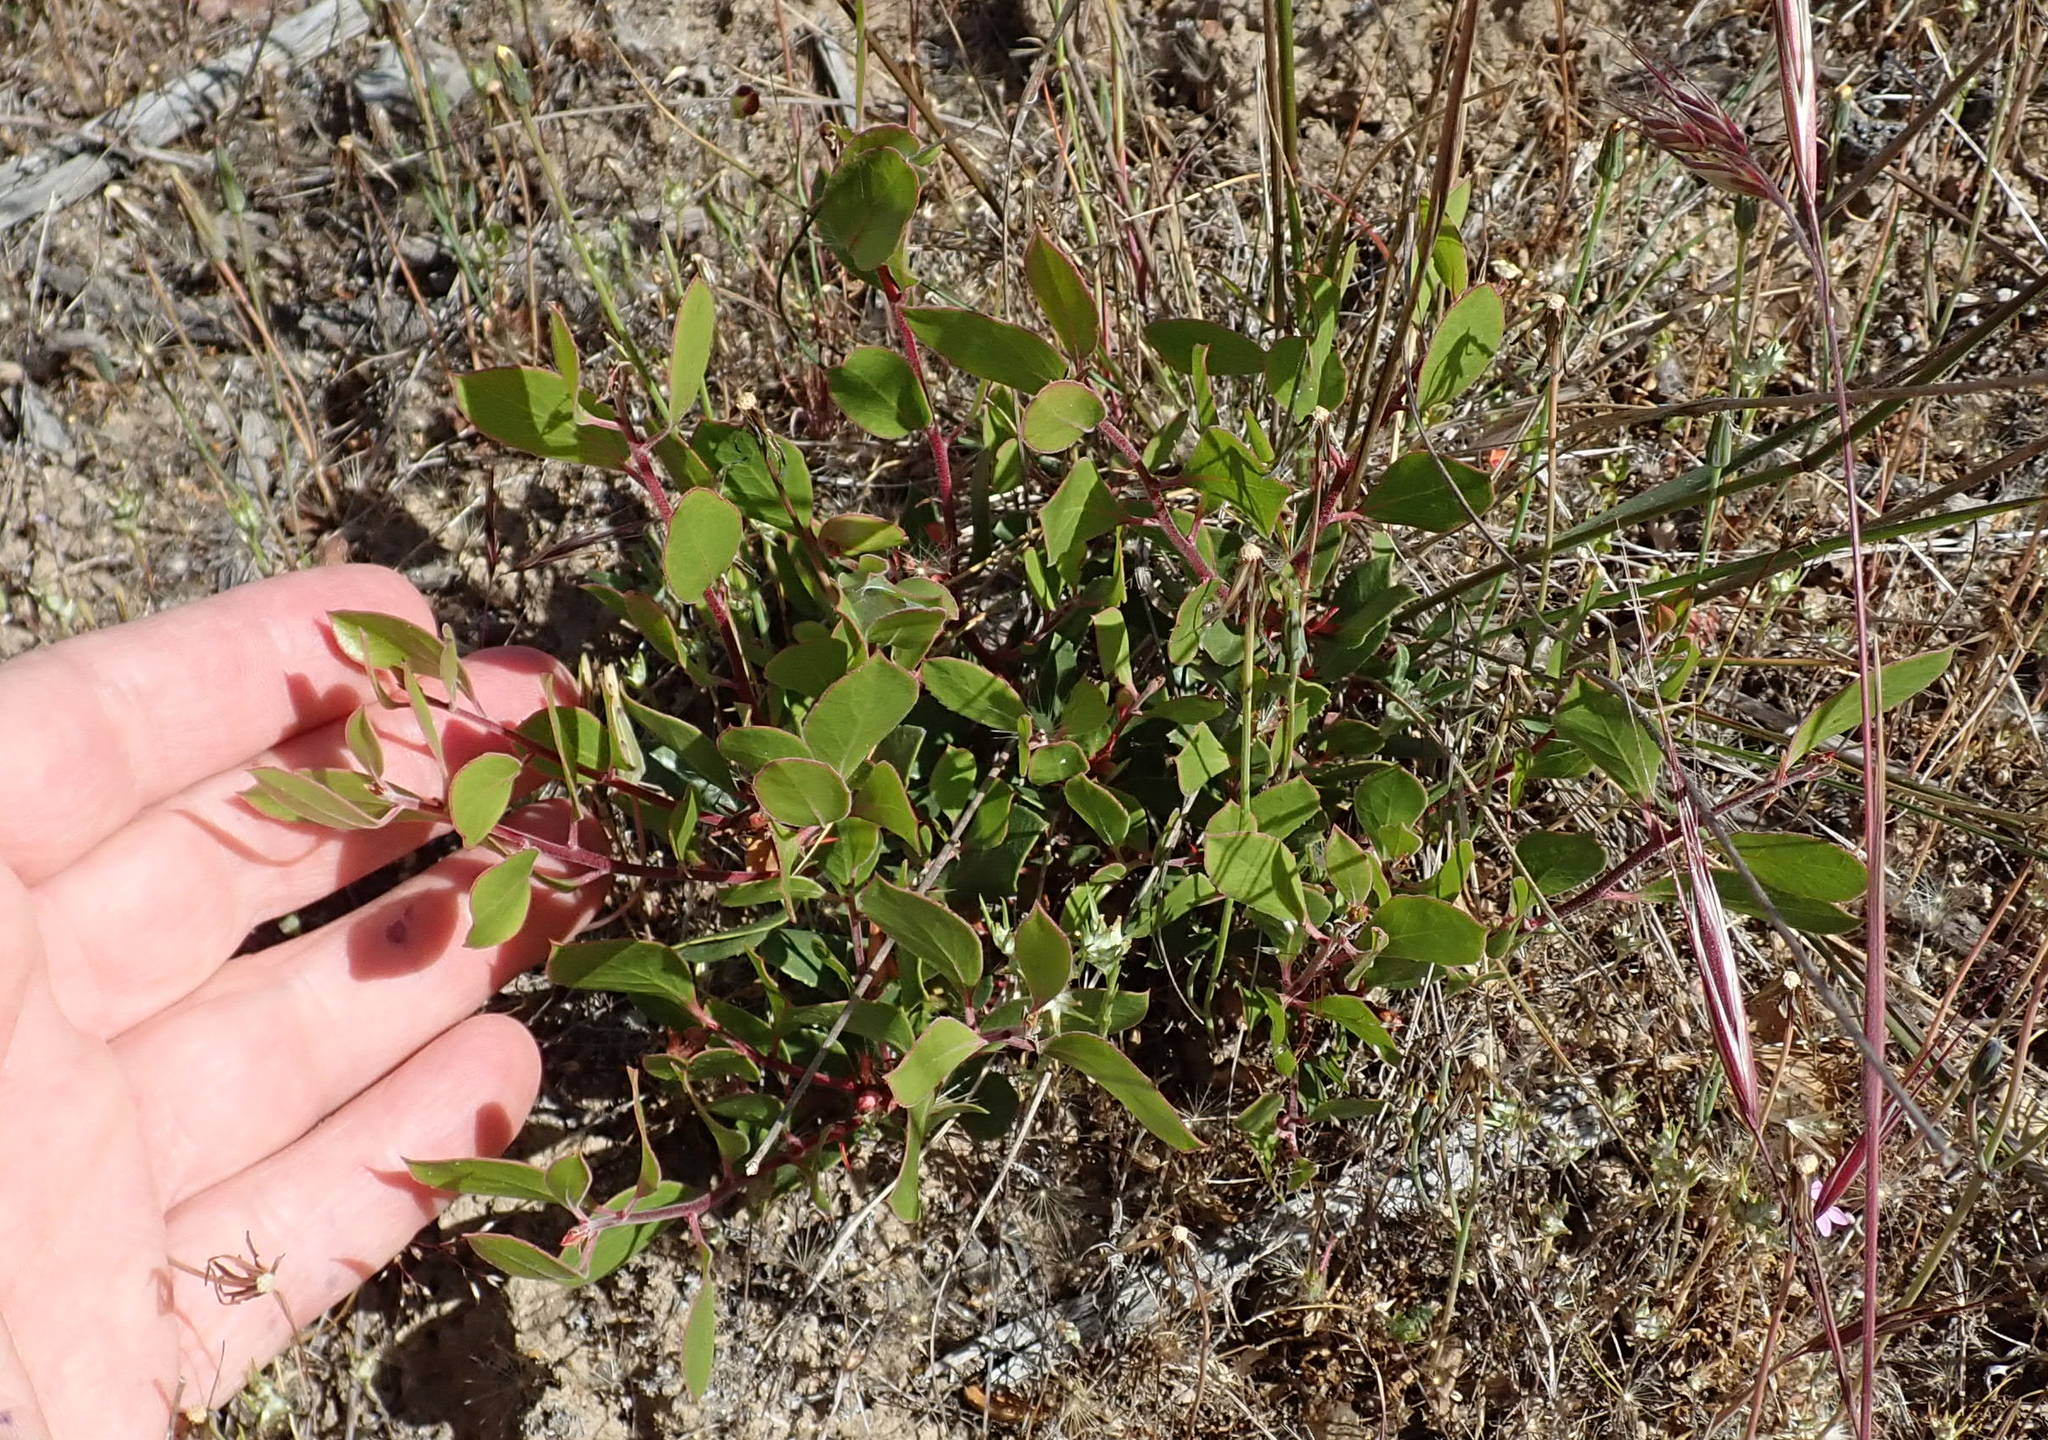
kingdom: Plantae
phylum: Tracheophyta
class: Magnoliopsida
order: Ericales
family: Ericaceae
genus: Arctostaphylos
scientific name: Arctostaphylos hookeri
